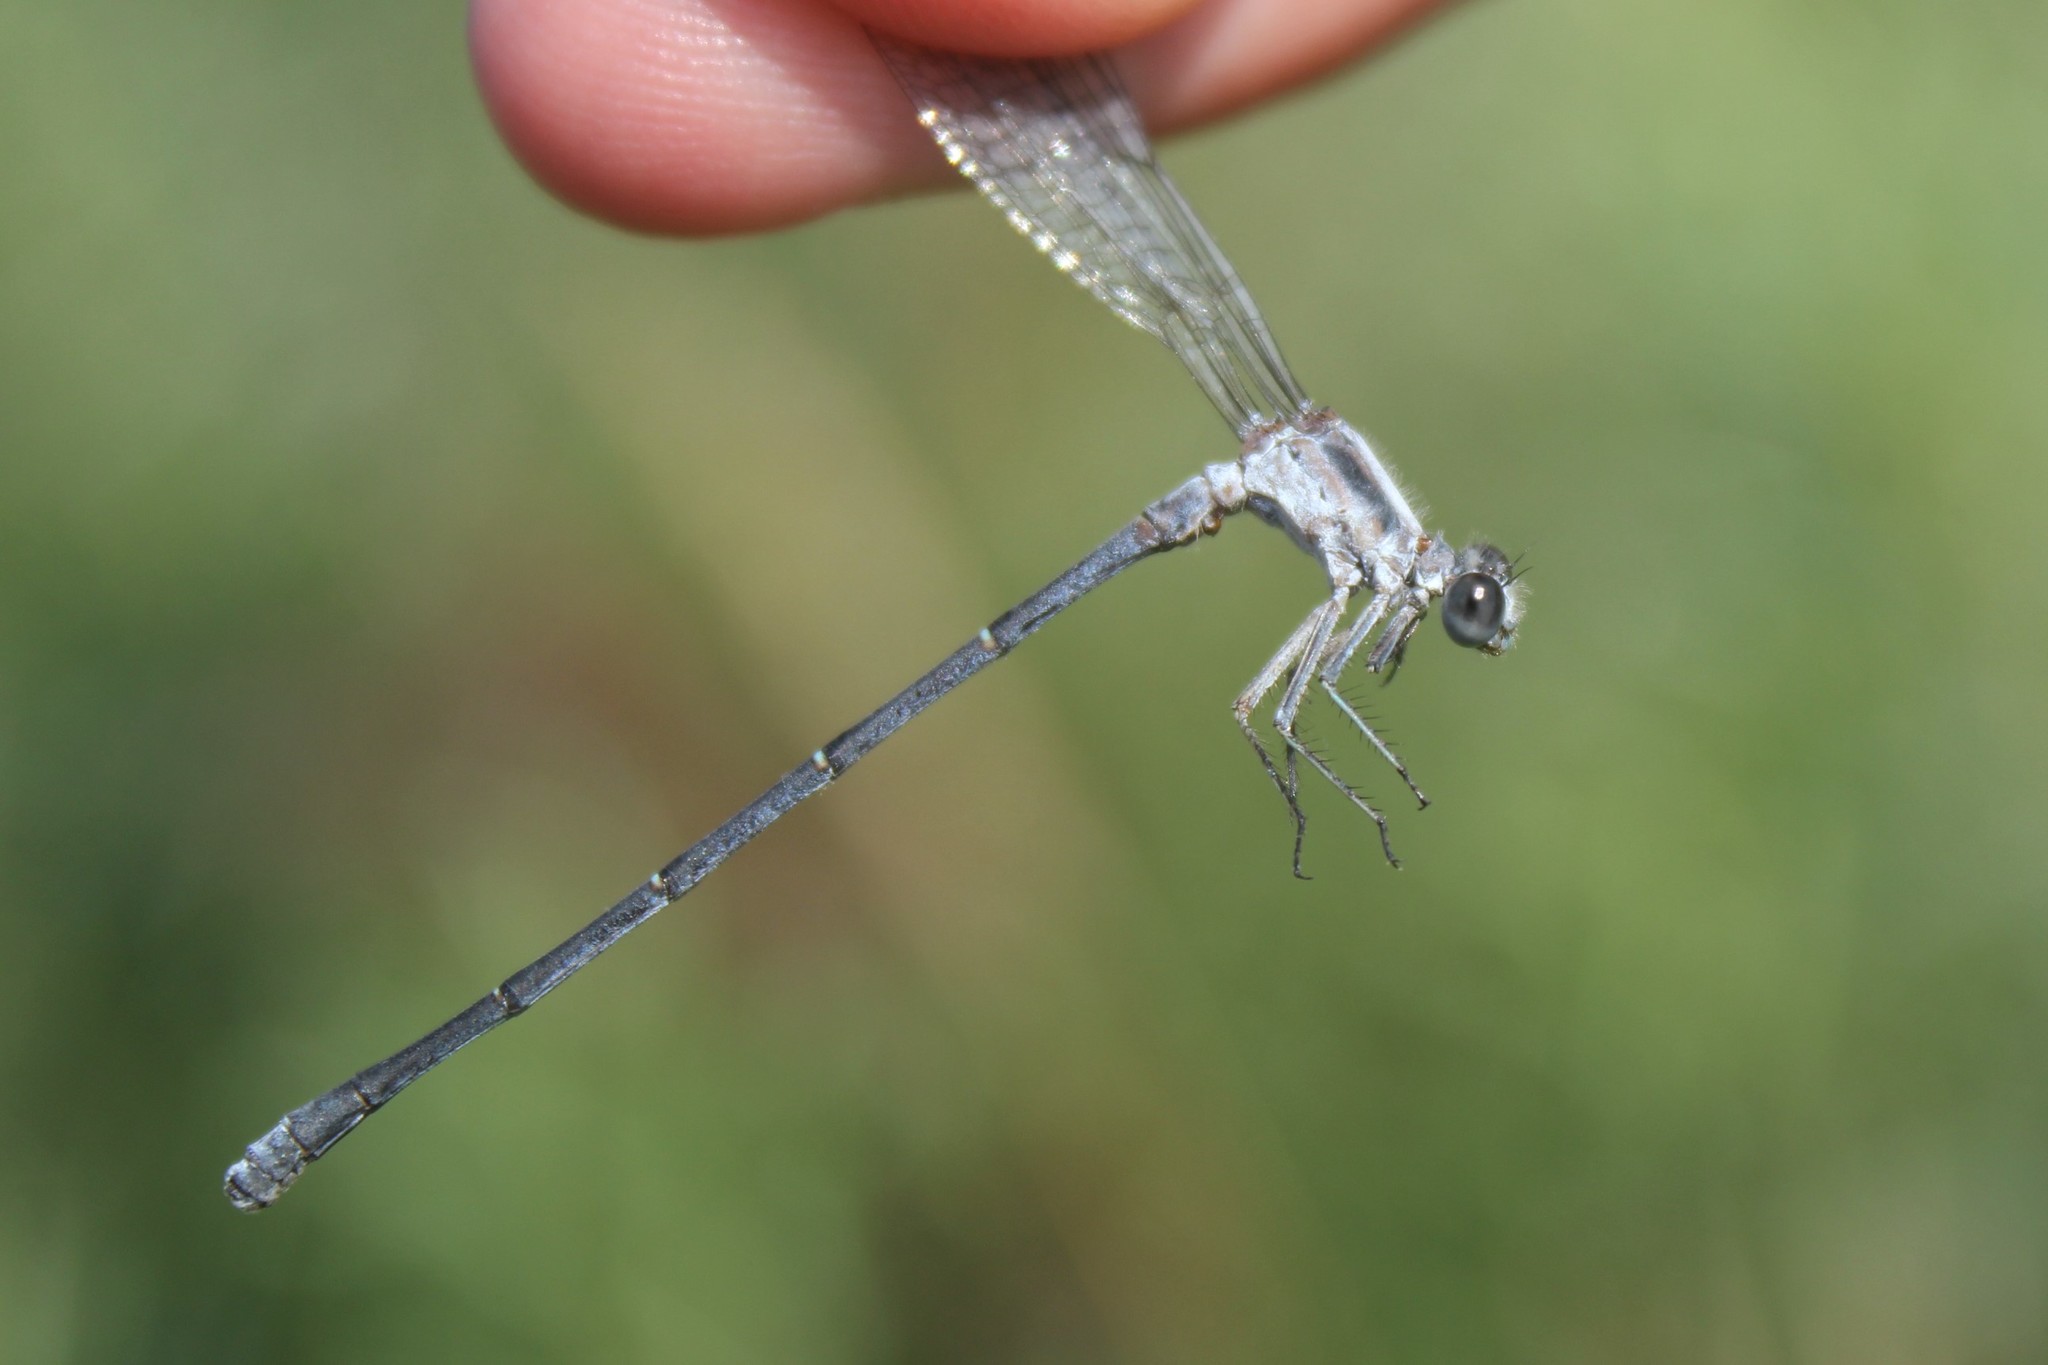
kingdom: Animalia
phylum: Arthropoda
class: Insecta
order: Odonata
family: Coenagrionidae
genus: Argia
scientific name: Argia moesta
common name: Powdered dancer
